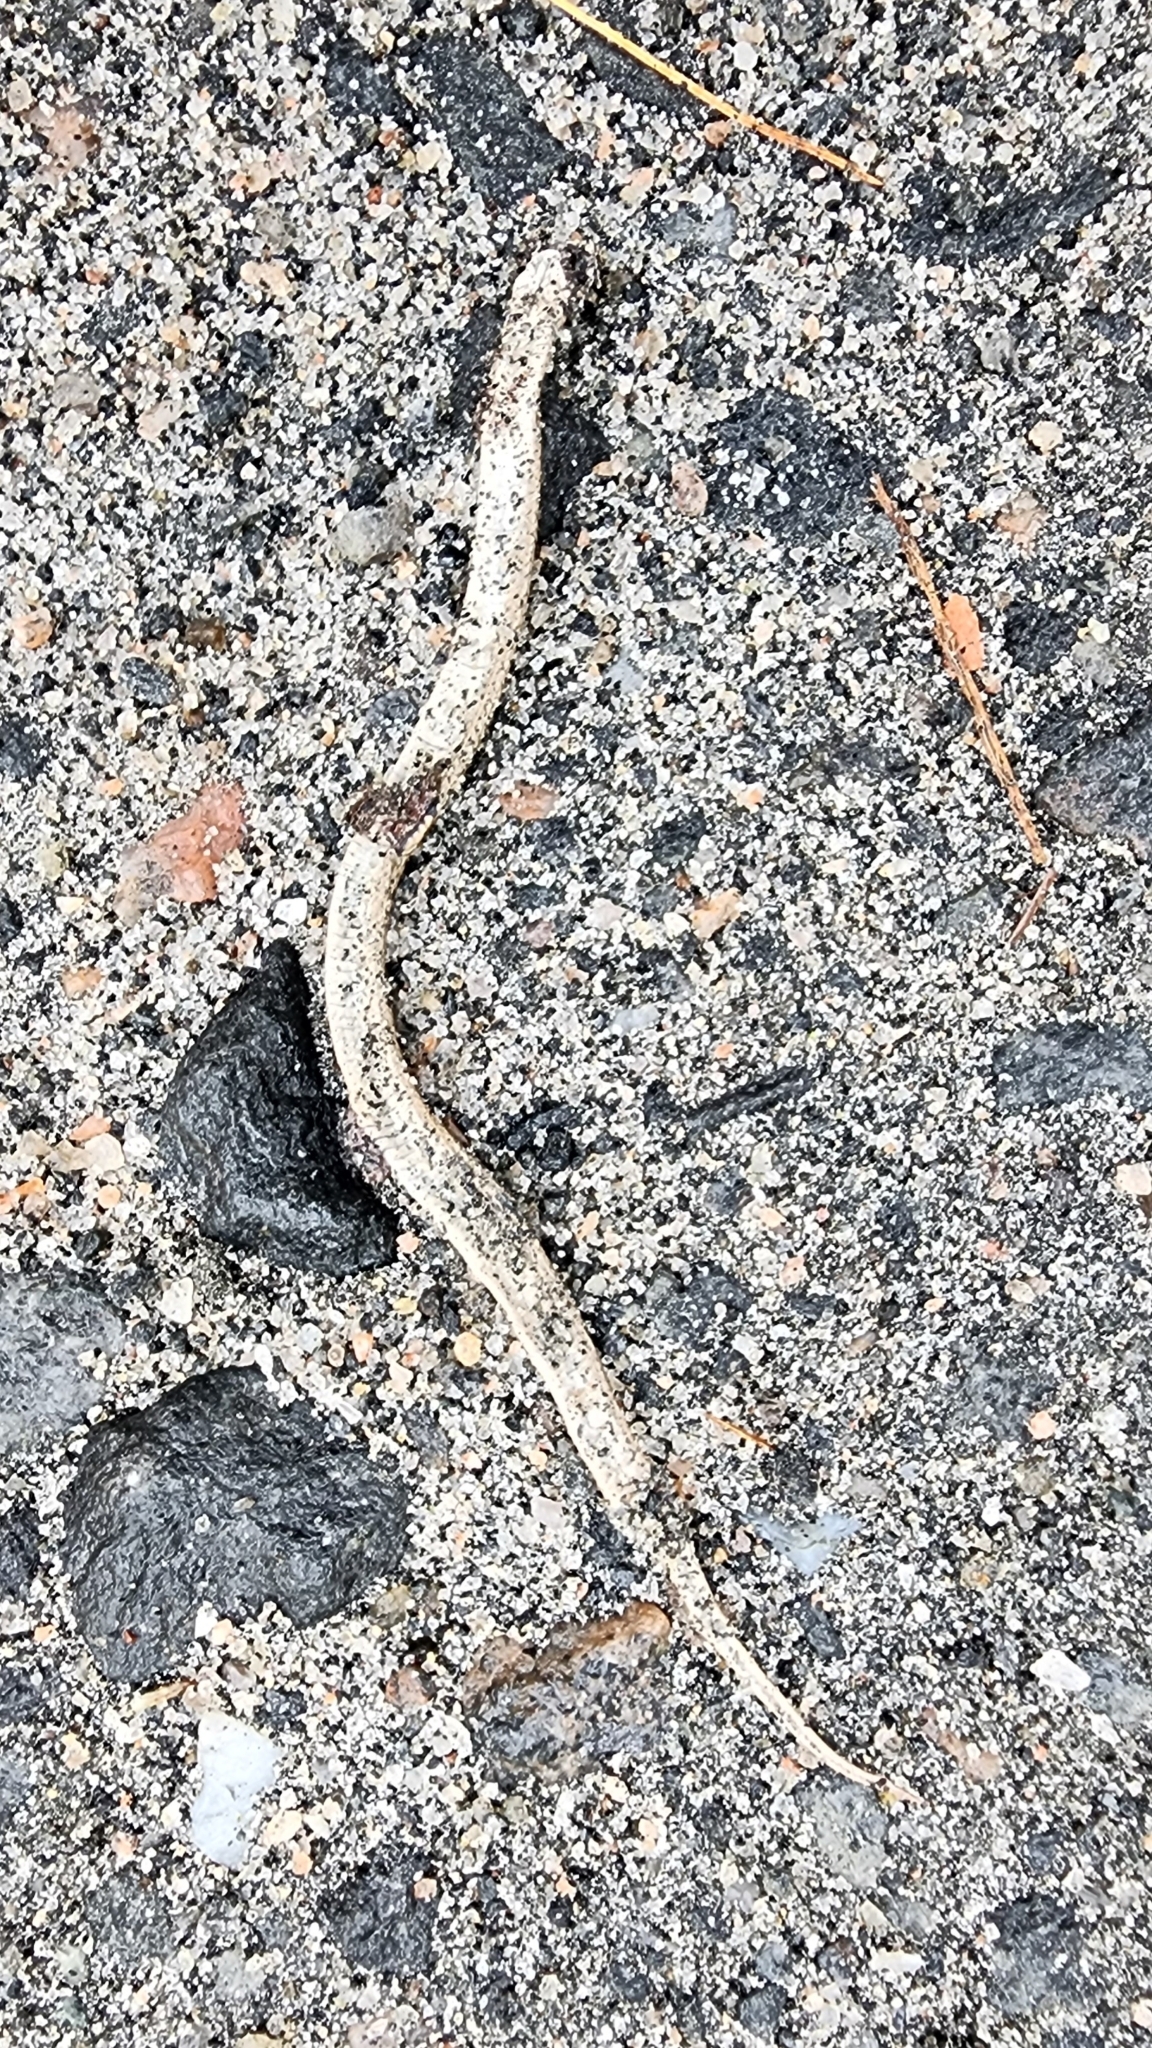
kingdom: Animalia
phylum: Chordata
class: Squamata
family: Colubridae
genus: Storeria
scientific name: Storeria dekayi
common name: (dekay’s) brown snake
